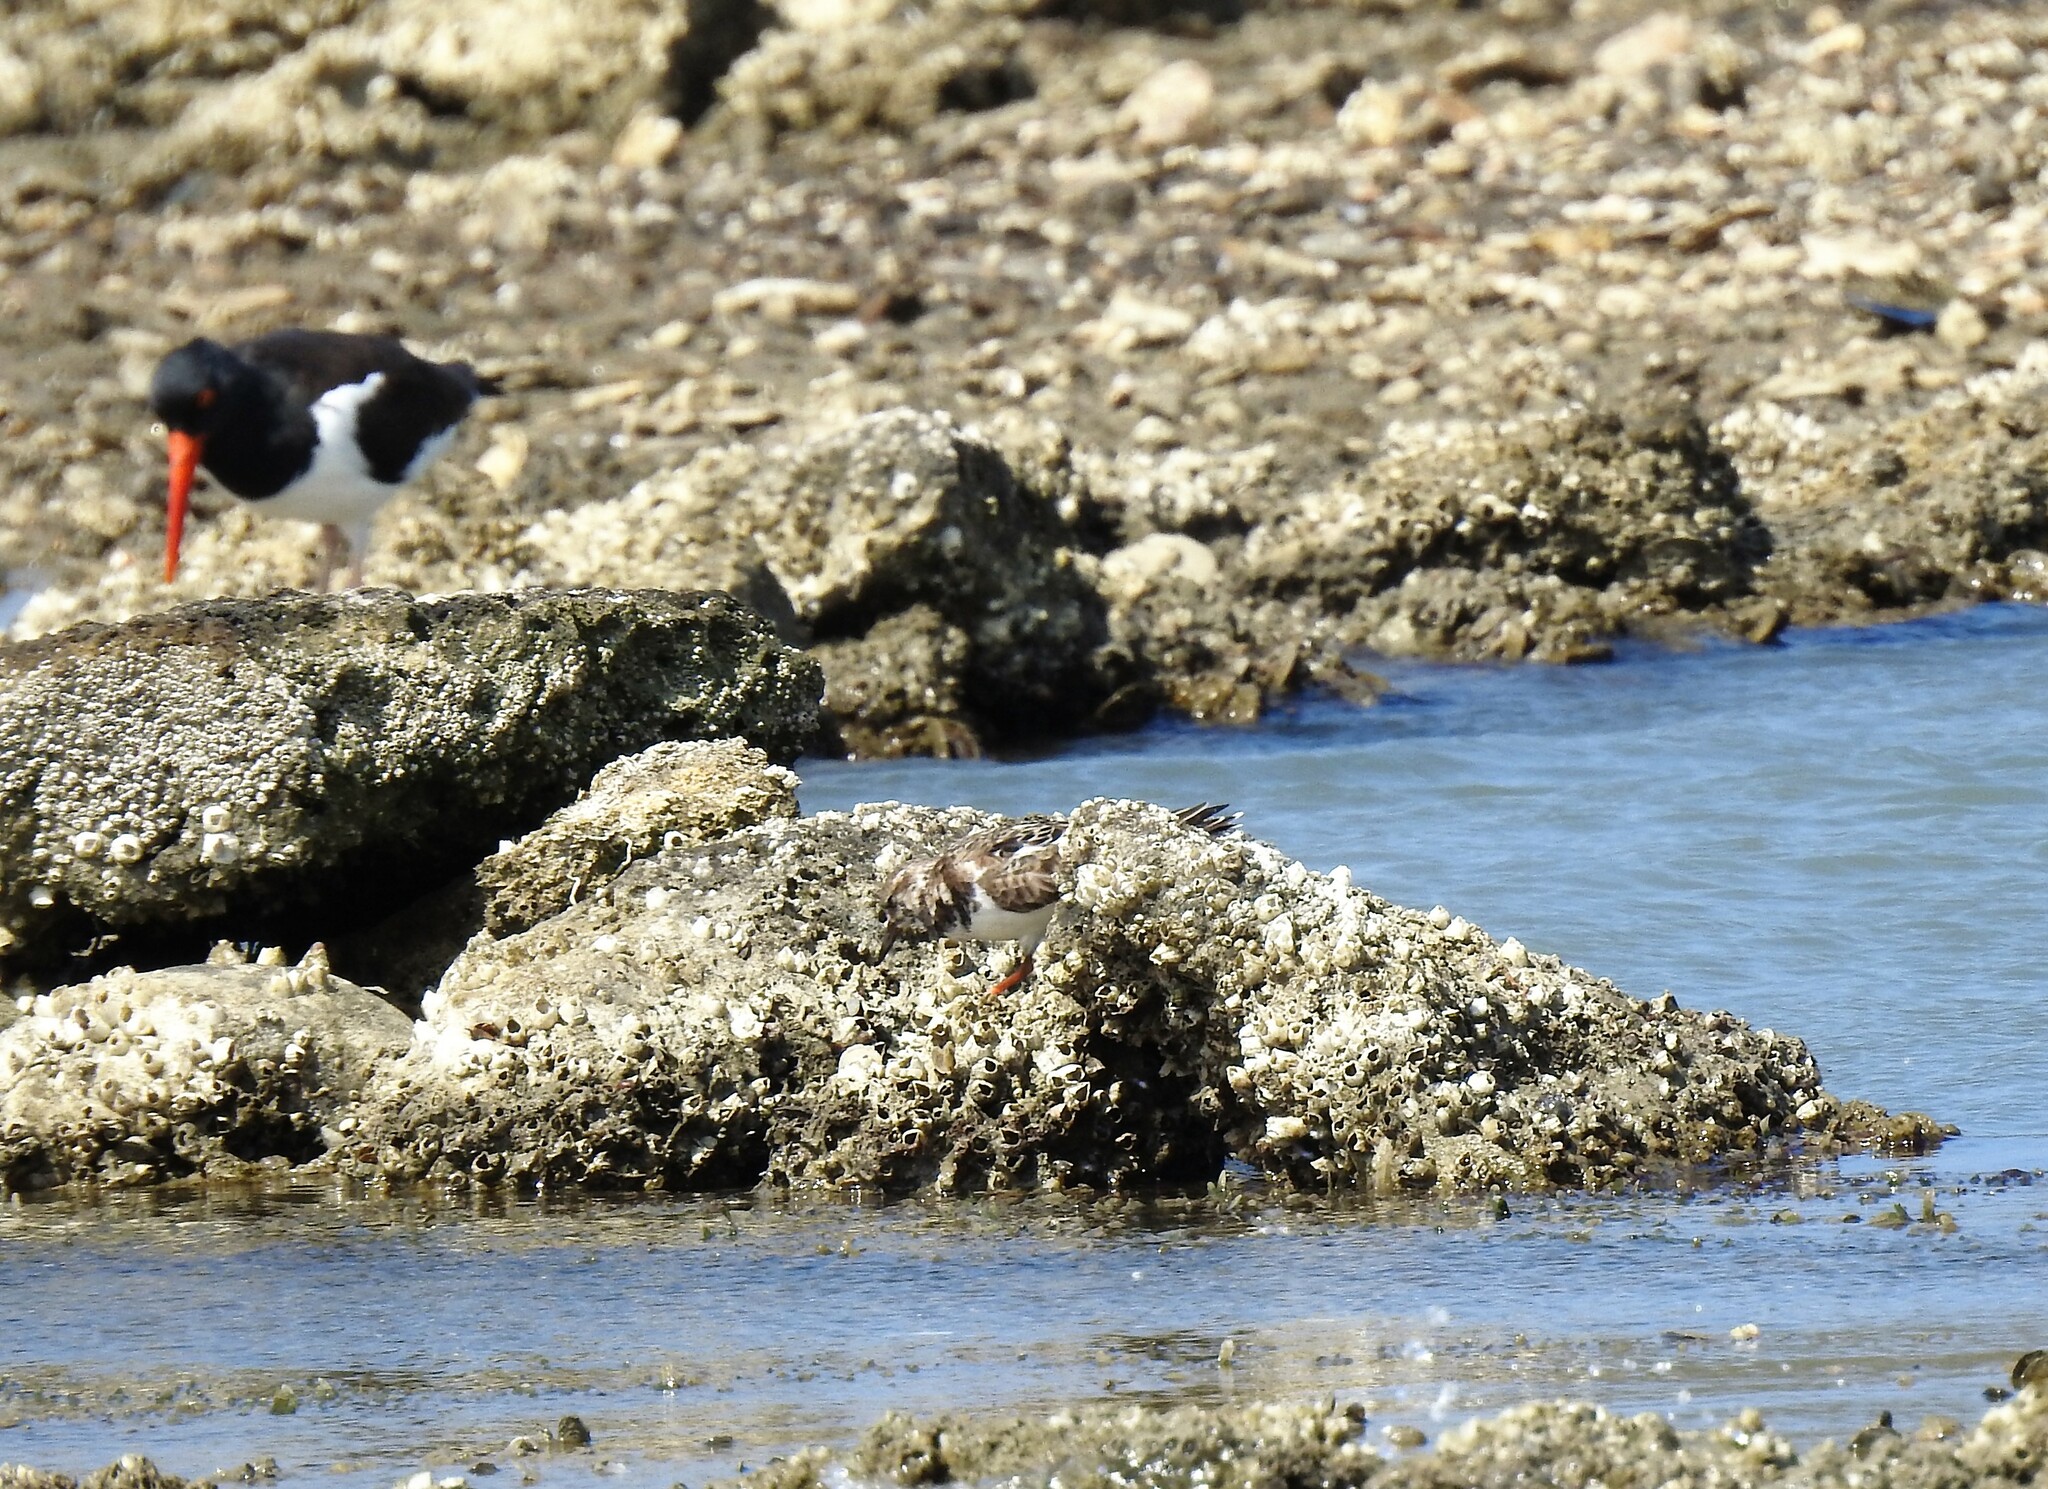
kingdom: Animalia
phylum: Chordata
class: Aves
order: Charadriiformes
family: Scolopacidae
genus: Arenaria
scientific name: Arenaria interpres
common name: Ruddy turnstone
